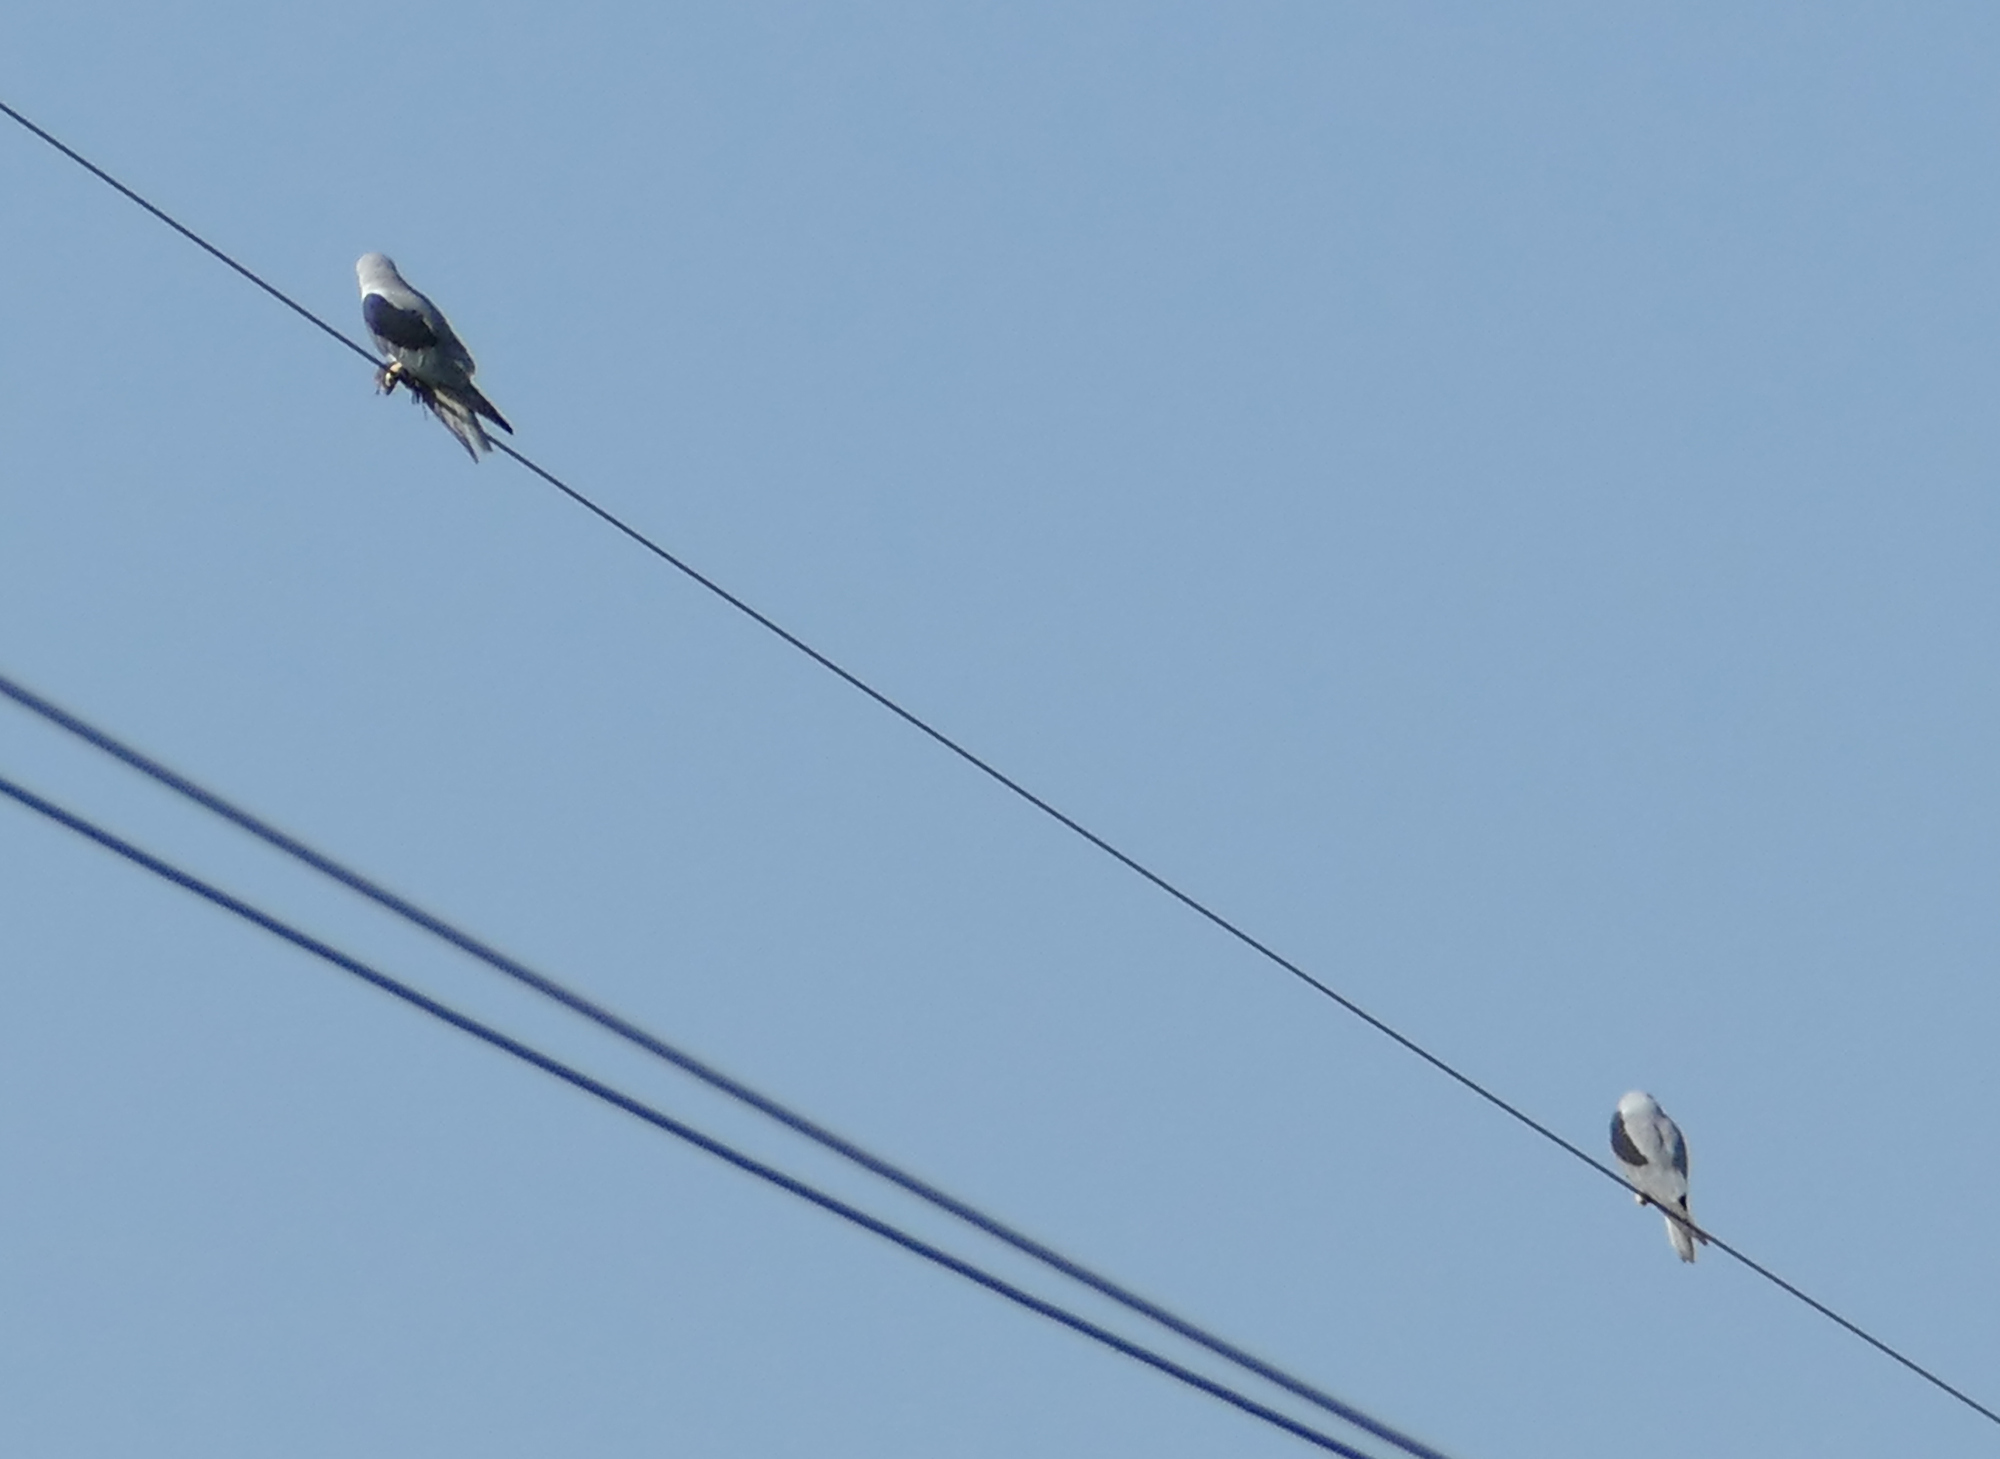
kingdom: Animalia
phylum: Chordata
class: Aves
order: Accipitriformes
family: Accipitridae
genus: Elanus
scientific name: Elanus leucurus
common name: White-tailed kite
